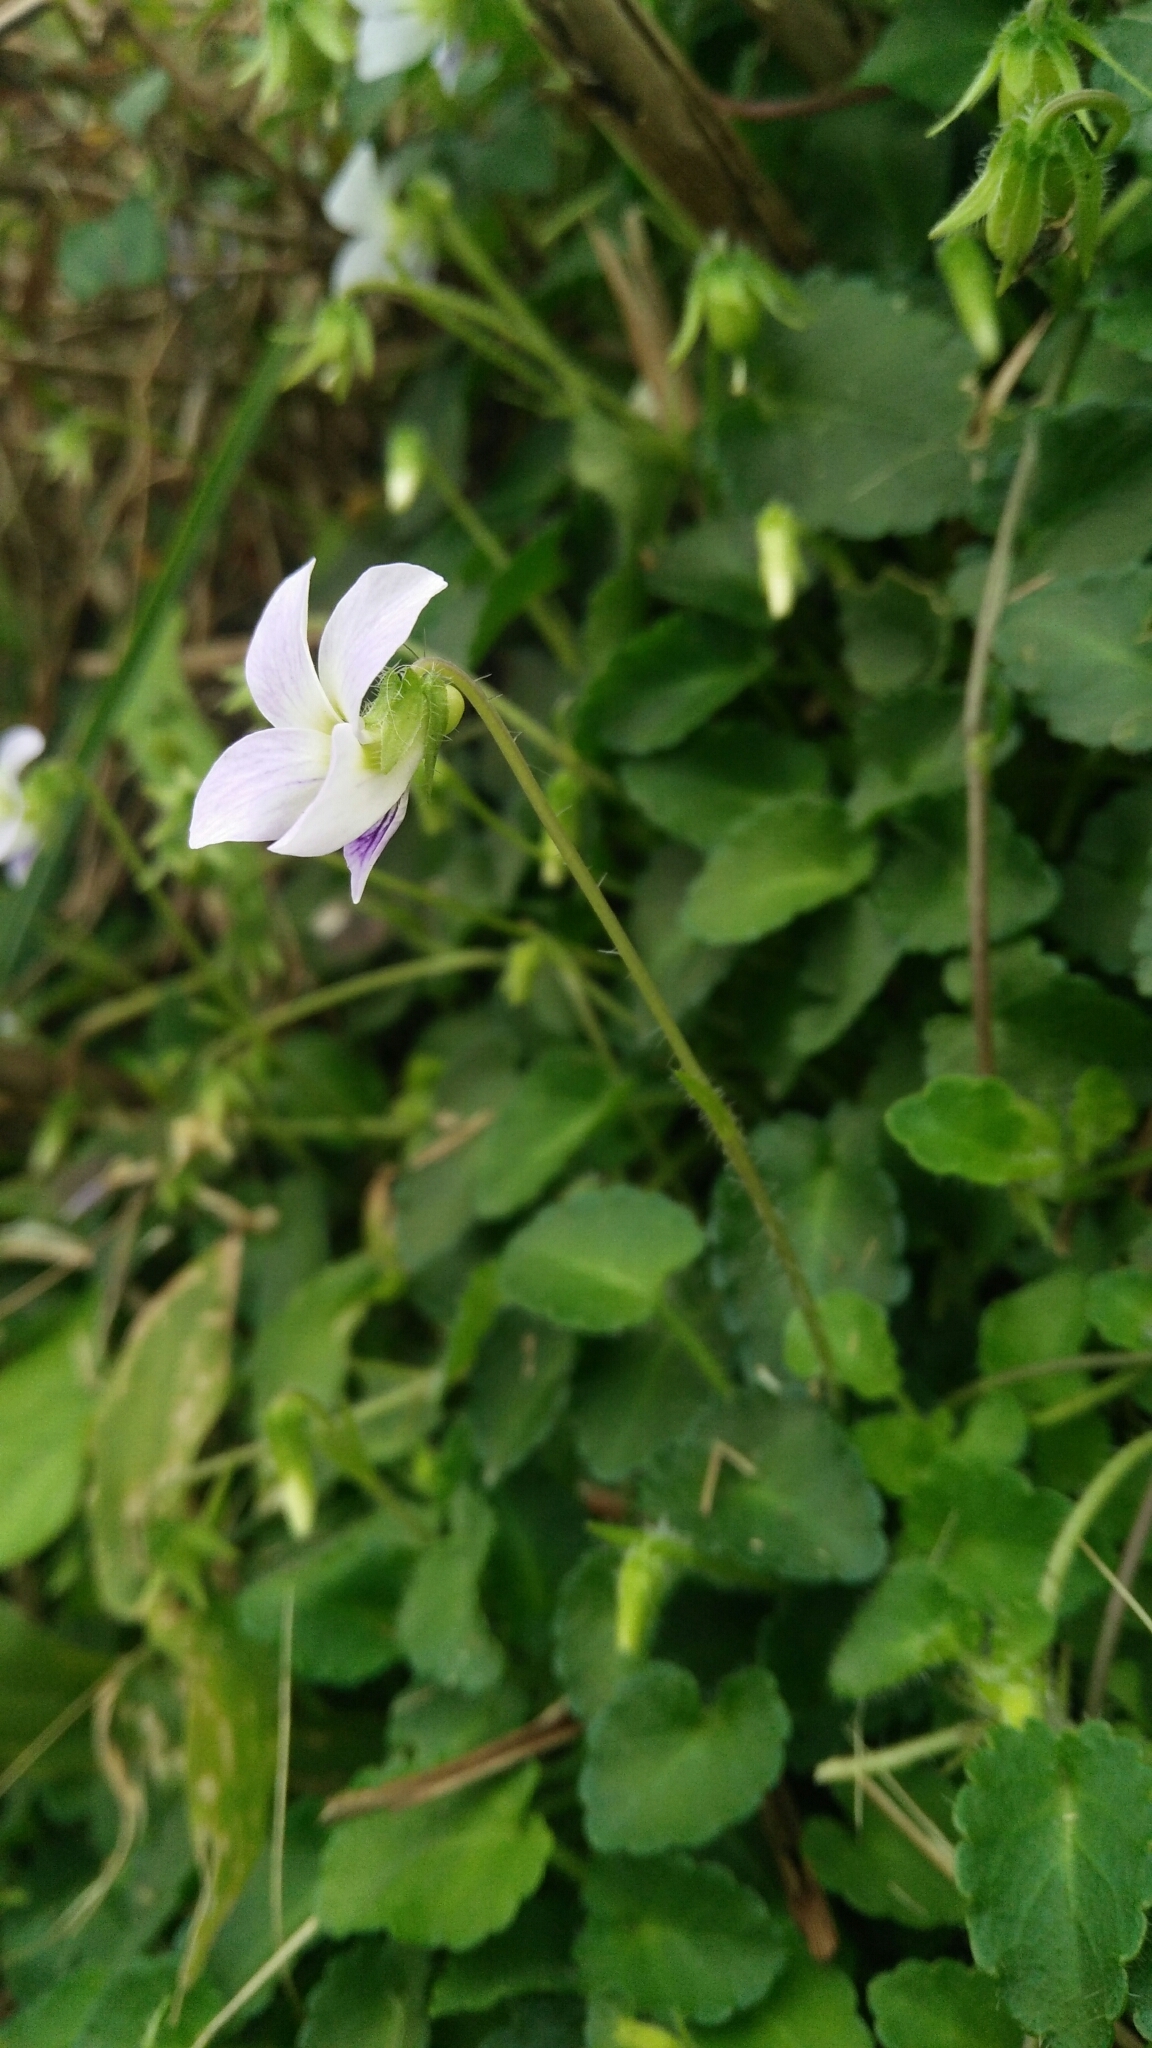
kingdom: Plantae
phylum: Tracheophyta
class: Magnoliopsida
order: Malpighiales
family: Violaceae
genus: Viola
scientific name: Viola nagasawae
